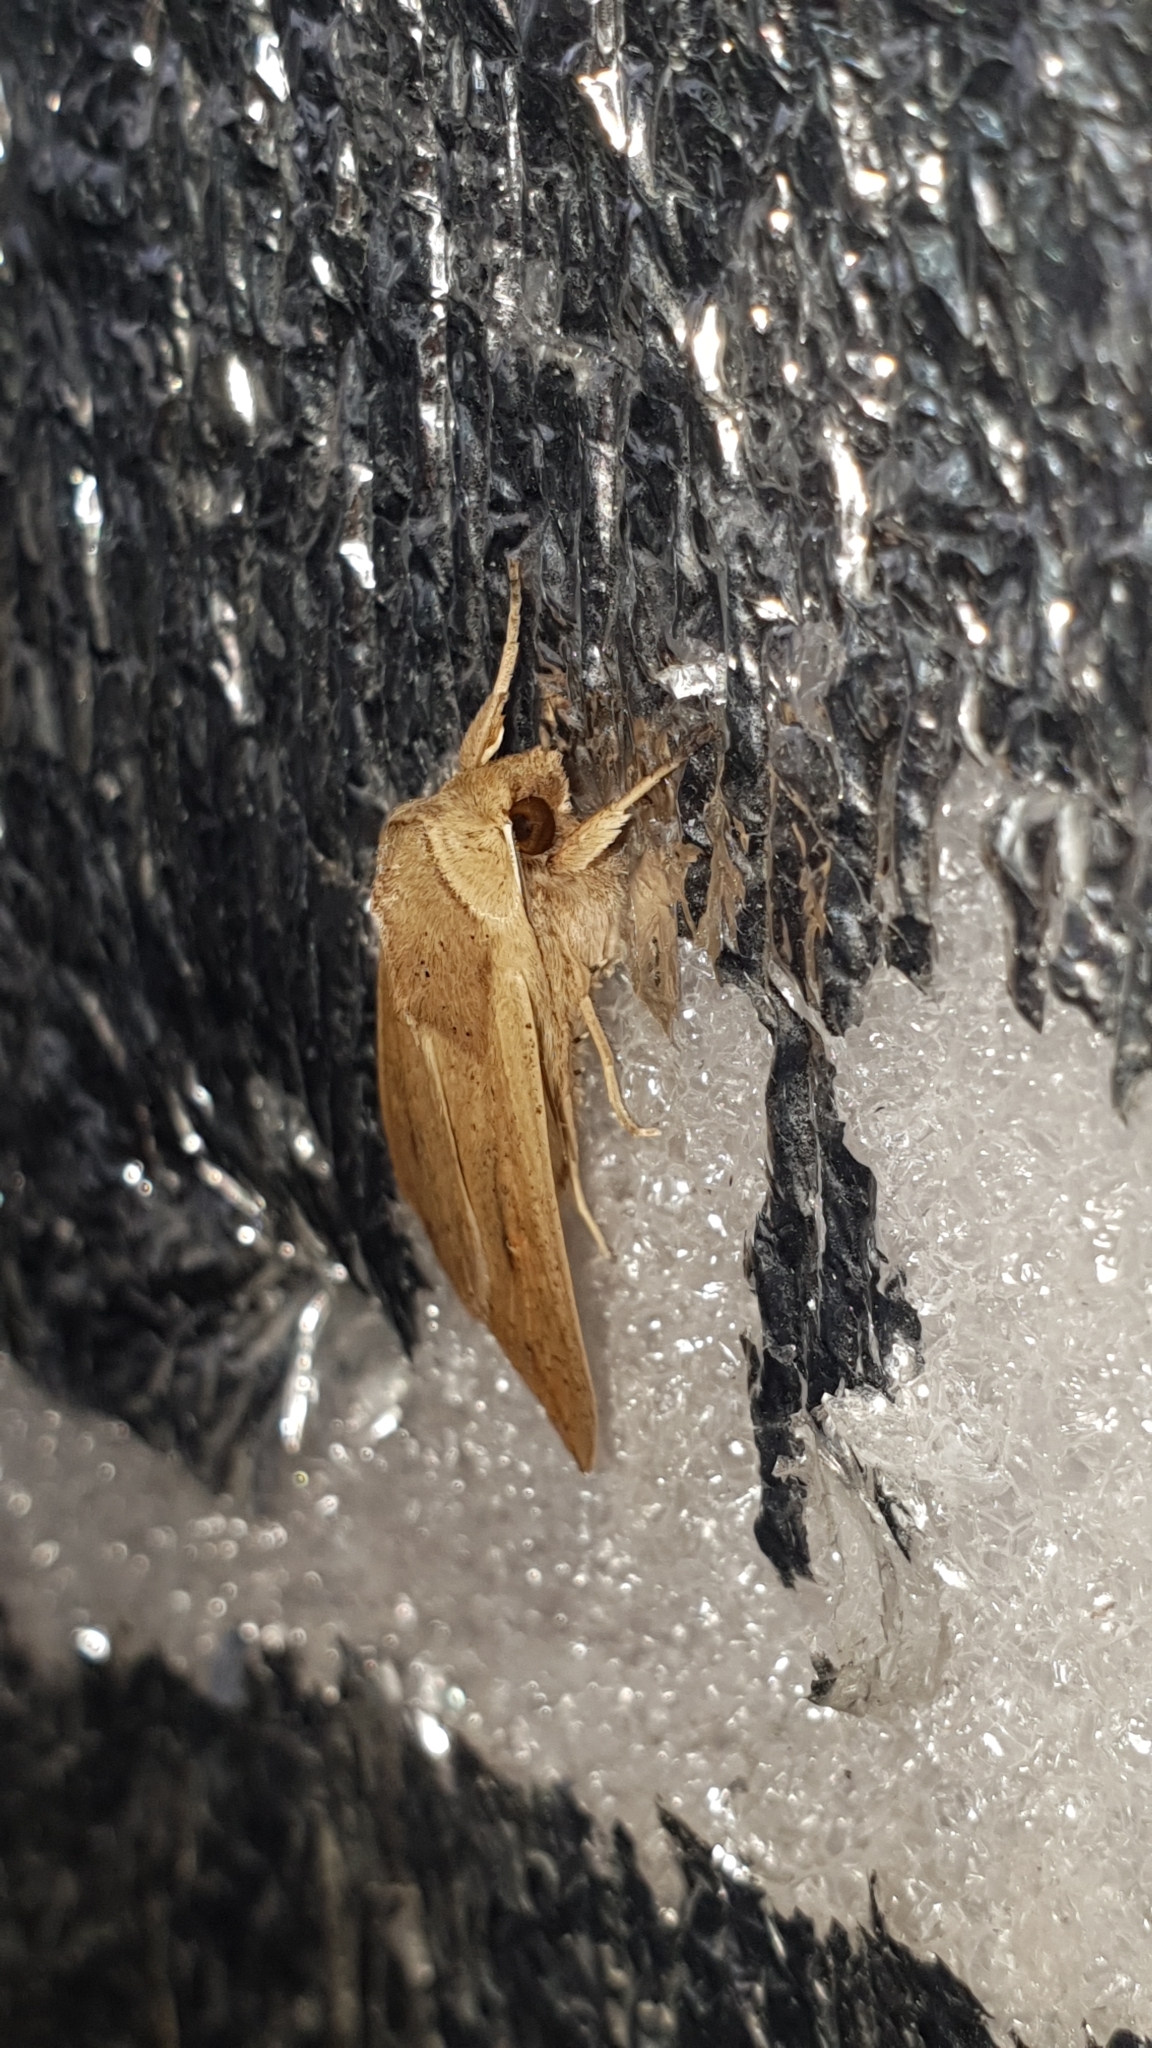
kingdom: Animalia
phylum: Arthropoda
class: Insecta
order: Lepidoptera
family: Noctuidae
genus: Mythimna
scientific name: Mythimna unipuncta
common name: White-speck
